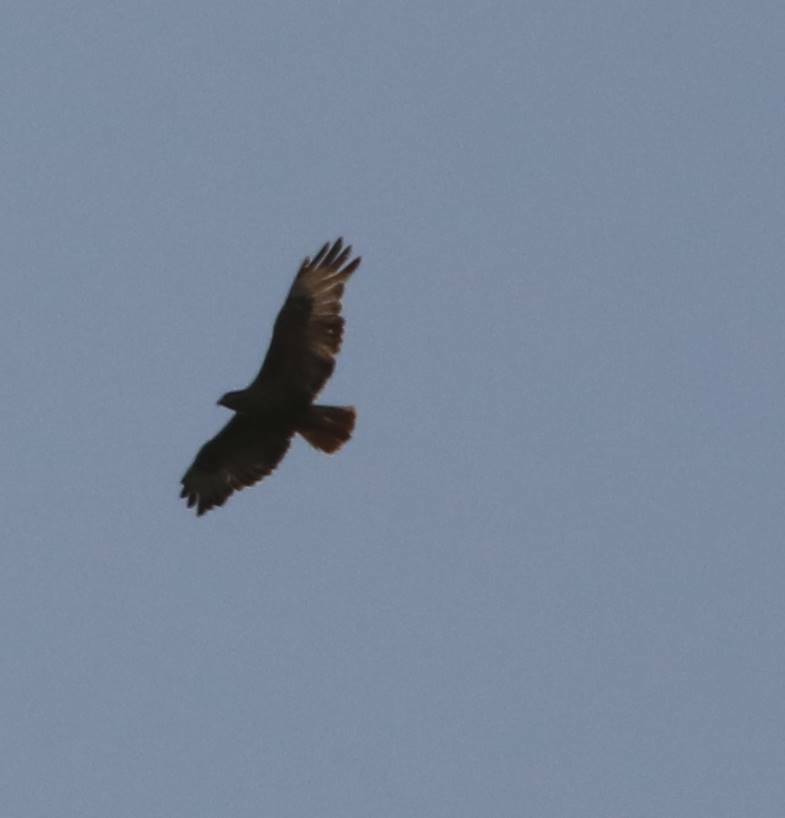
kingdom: Animalia
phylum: Chordata
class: Aves
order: Accipitriformes
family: Accipitridae
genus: Buteo
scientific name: Buteo buteo
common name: Common buzzard
